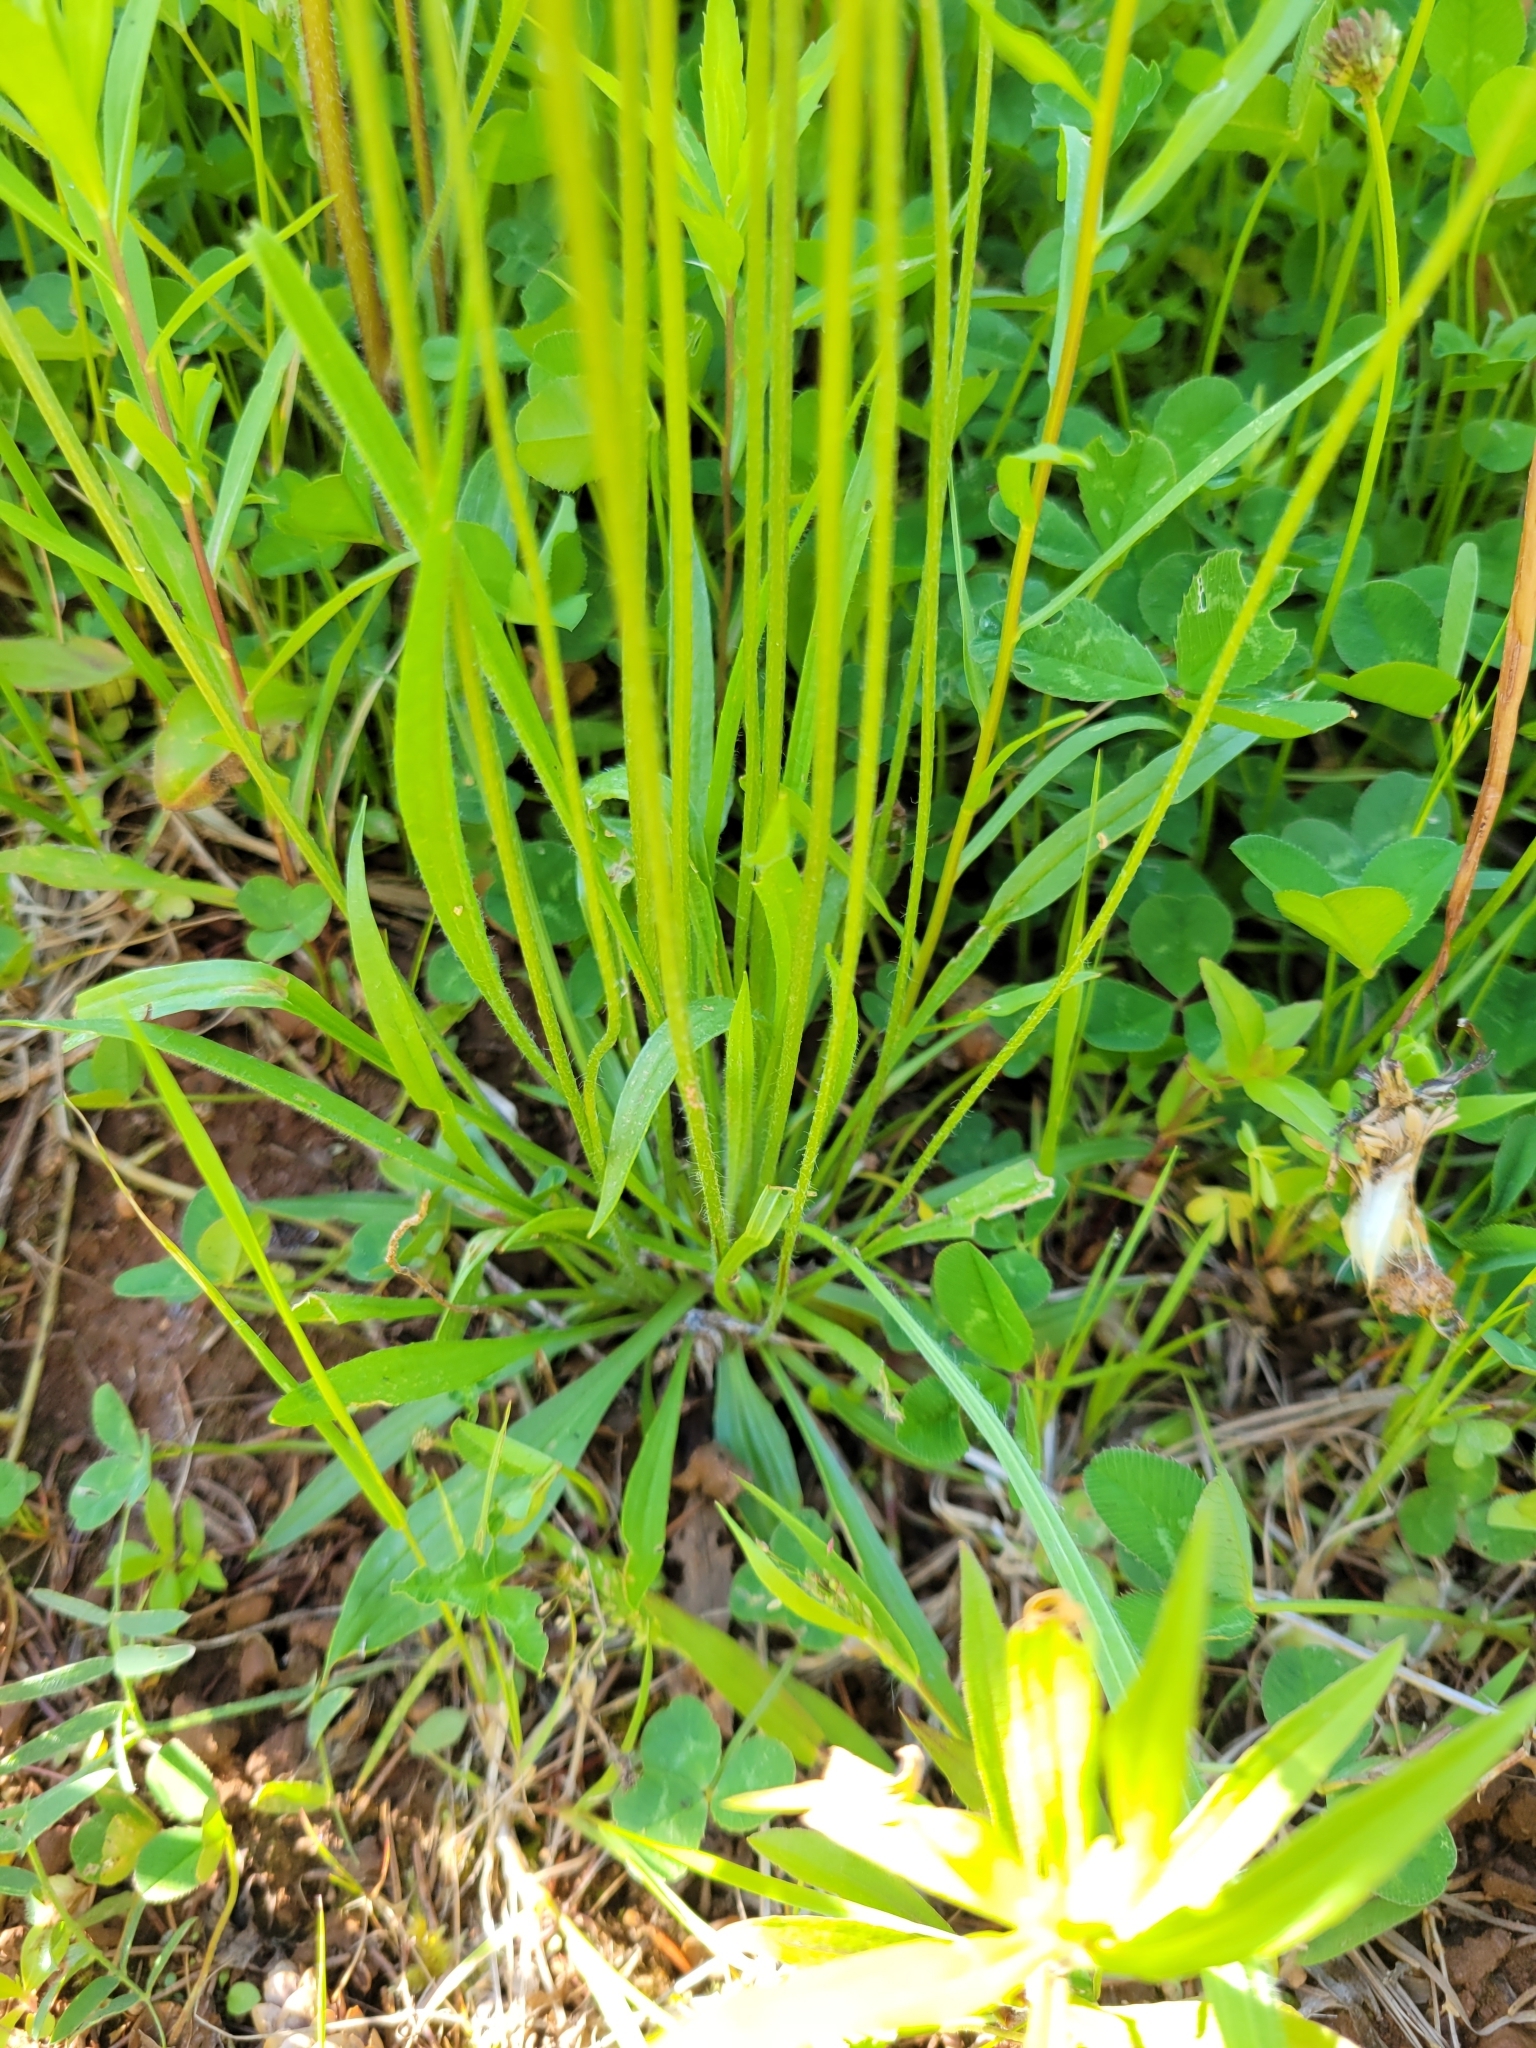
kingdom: Plantae
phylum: Tracheophyta
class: Magnoliopsida
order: Lamiales
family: Plantaginaceae
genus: Plantago
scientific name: Plantago lanceolata
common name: Ribwort plantain
